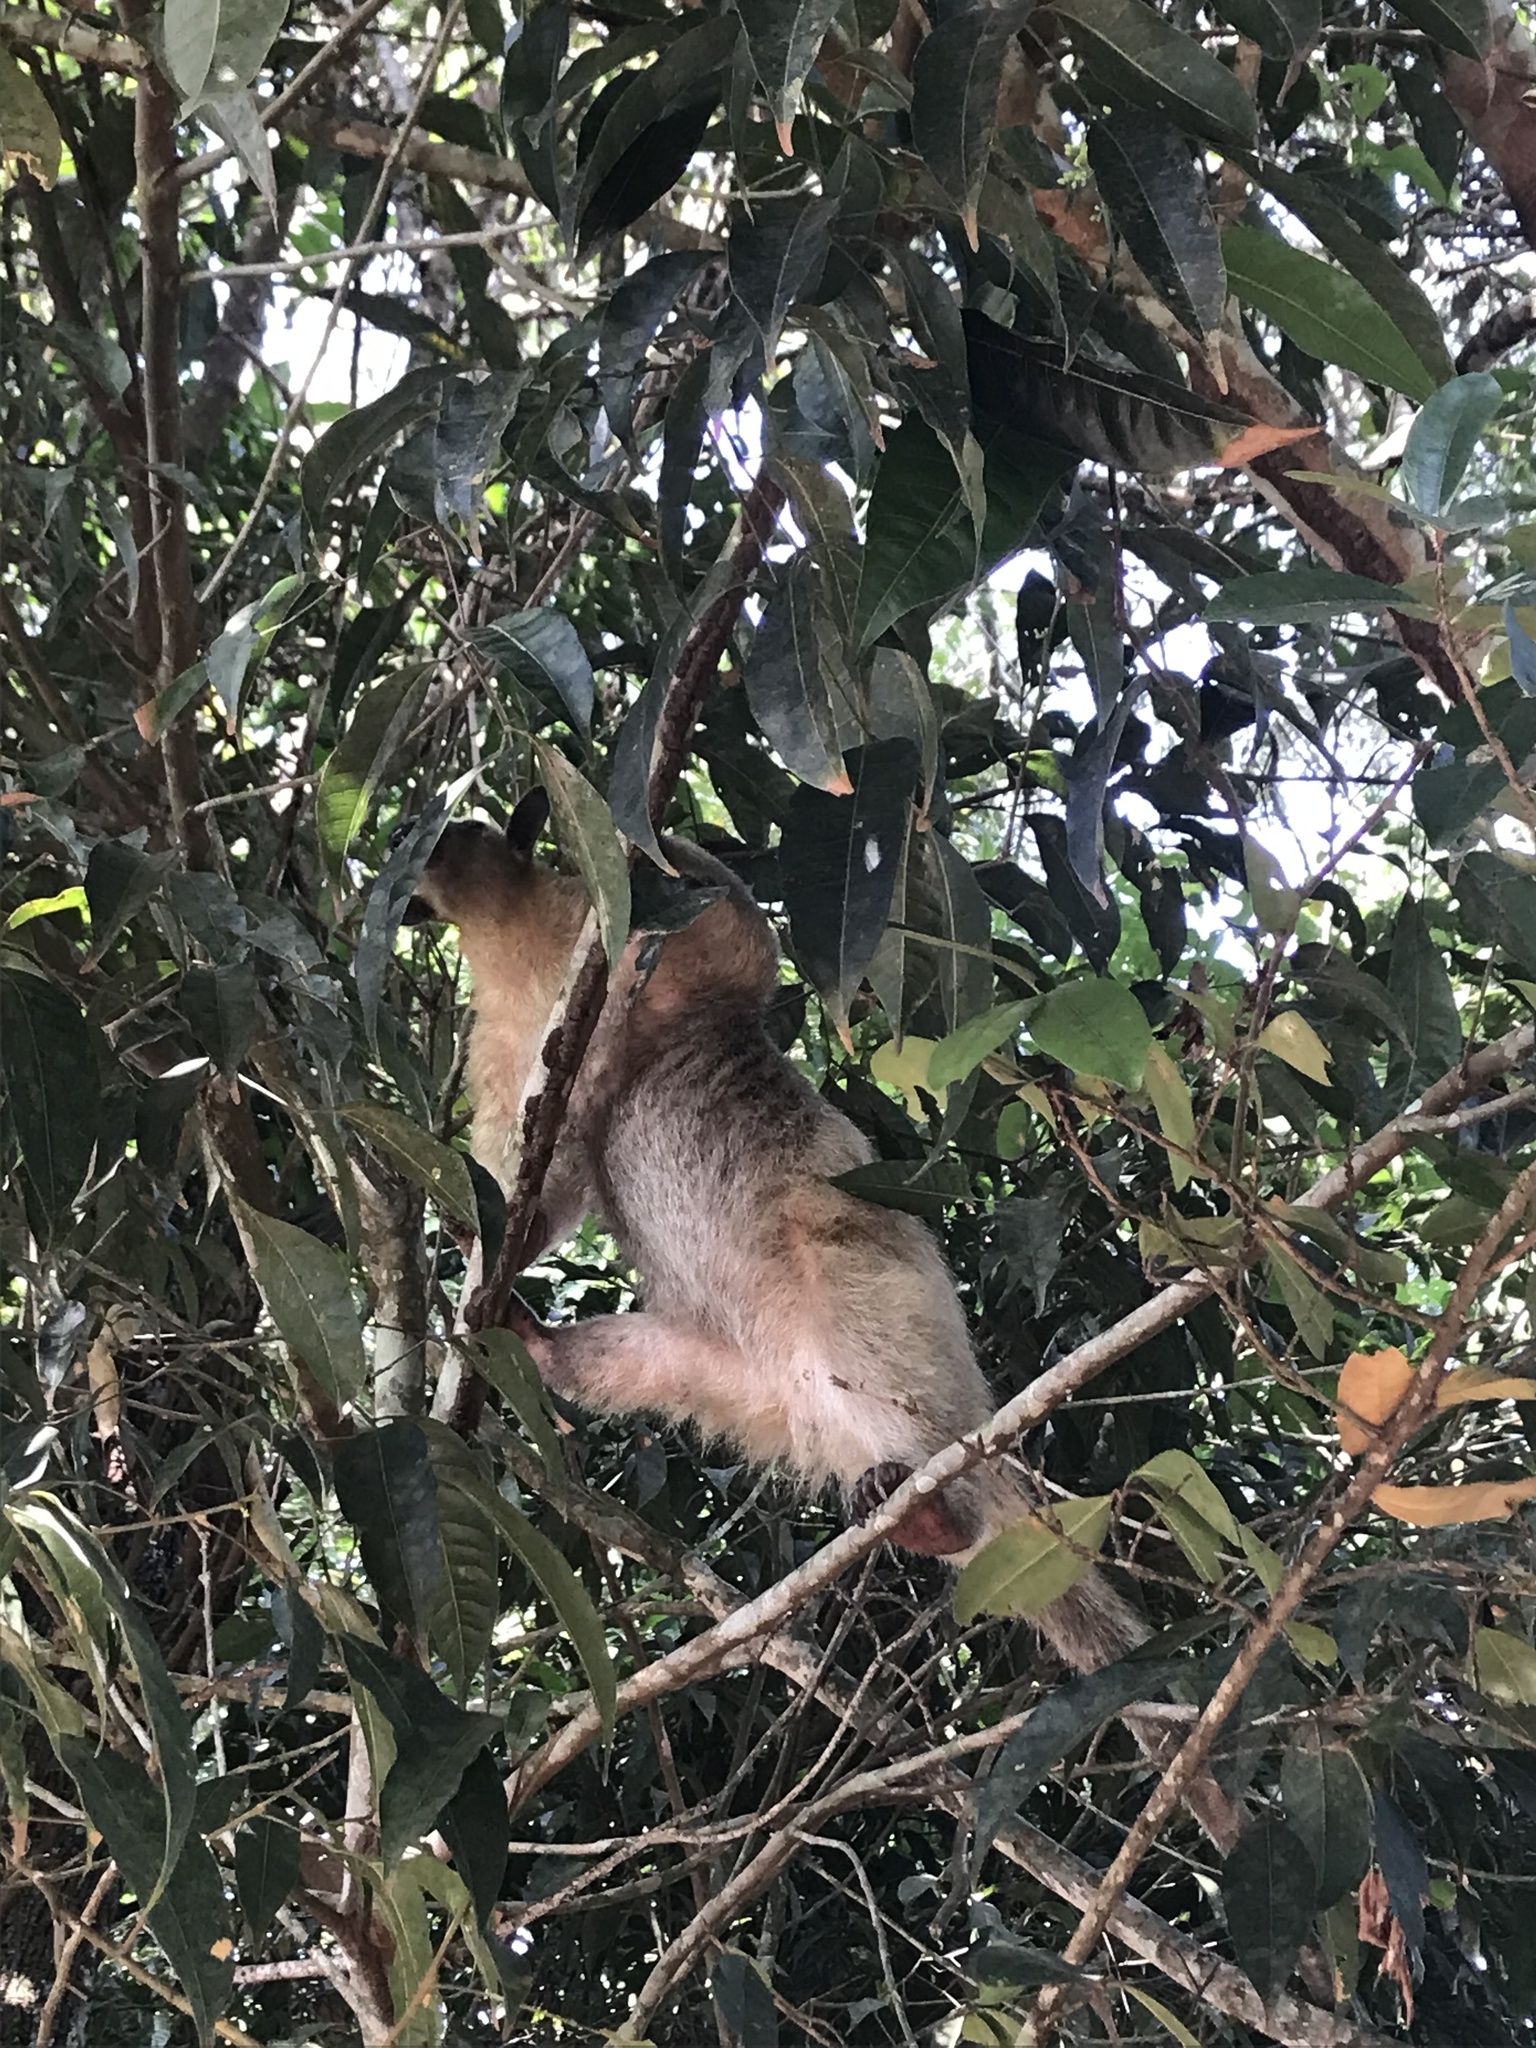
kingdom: Animalia
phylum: Chordata
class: Mammalia
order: Pilosa
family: Myrmecophagidae
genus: Tamandua
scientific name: Tamandua tetradactyla
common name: Southern tamandua
